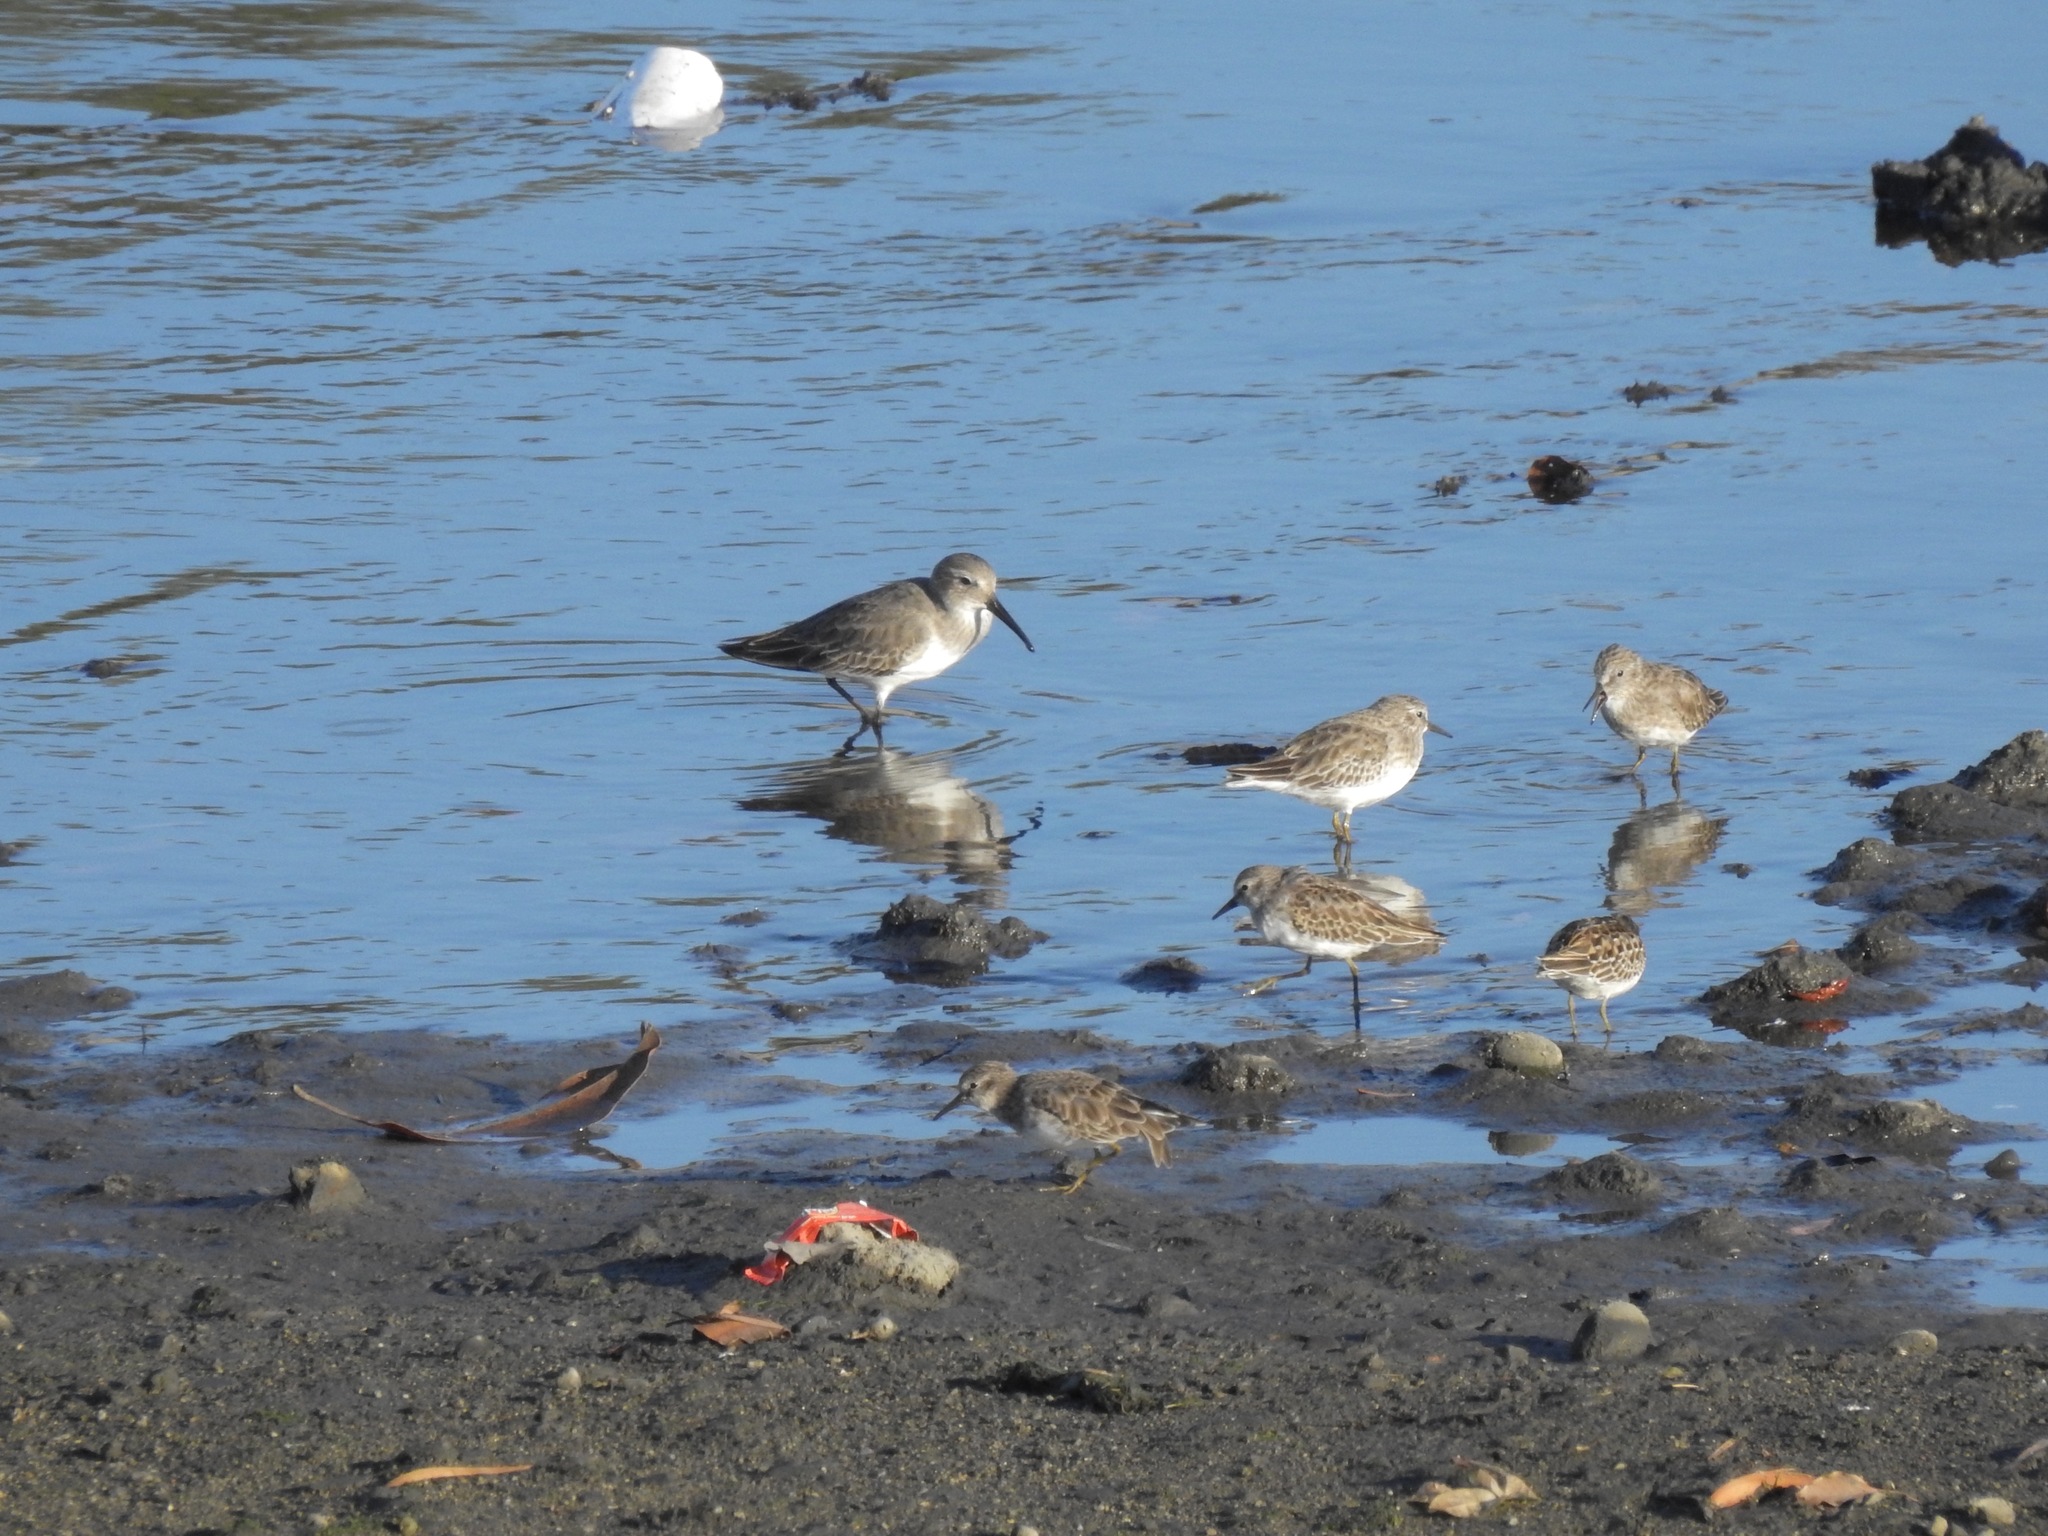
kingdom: Animalia
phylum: Chordata
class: Aves
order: Charadriiformes
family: Scolopacidae
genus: Calidris
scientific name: Calidris alpina
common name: Dunlin
